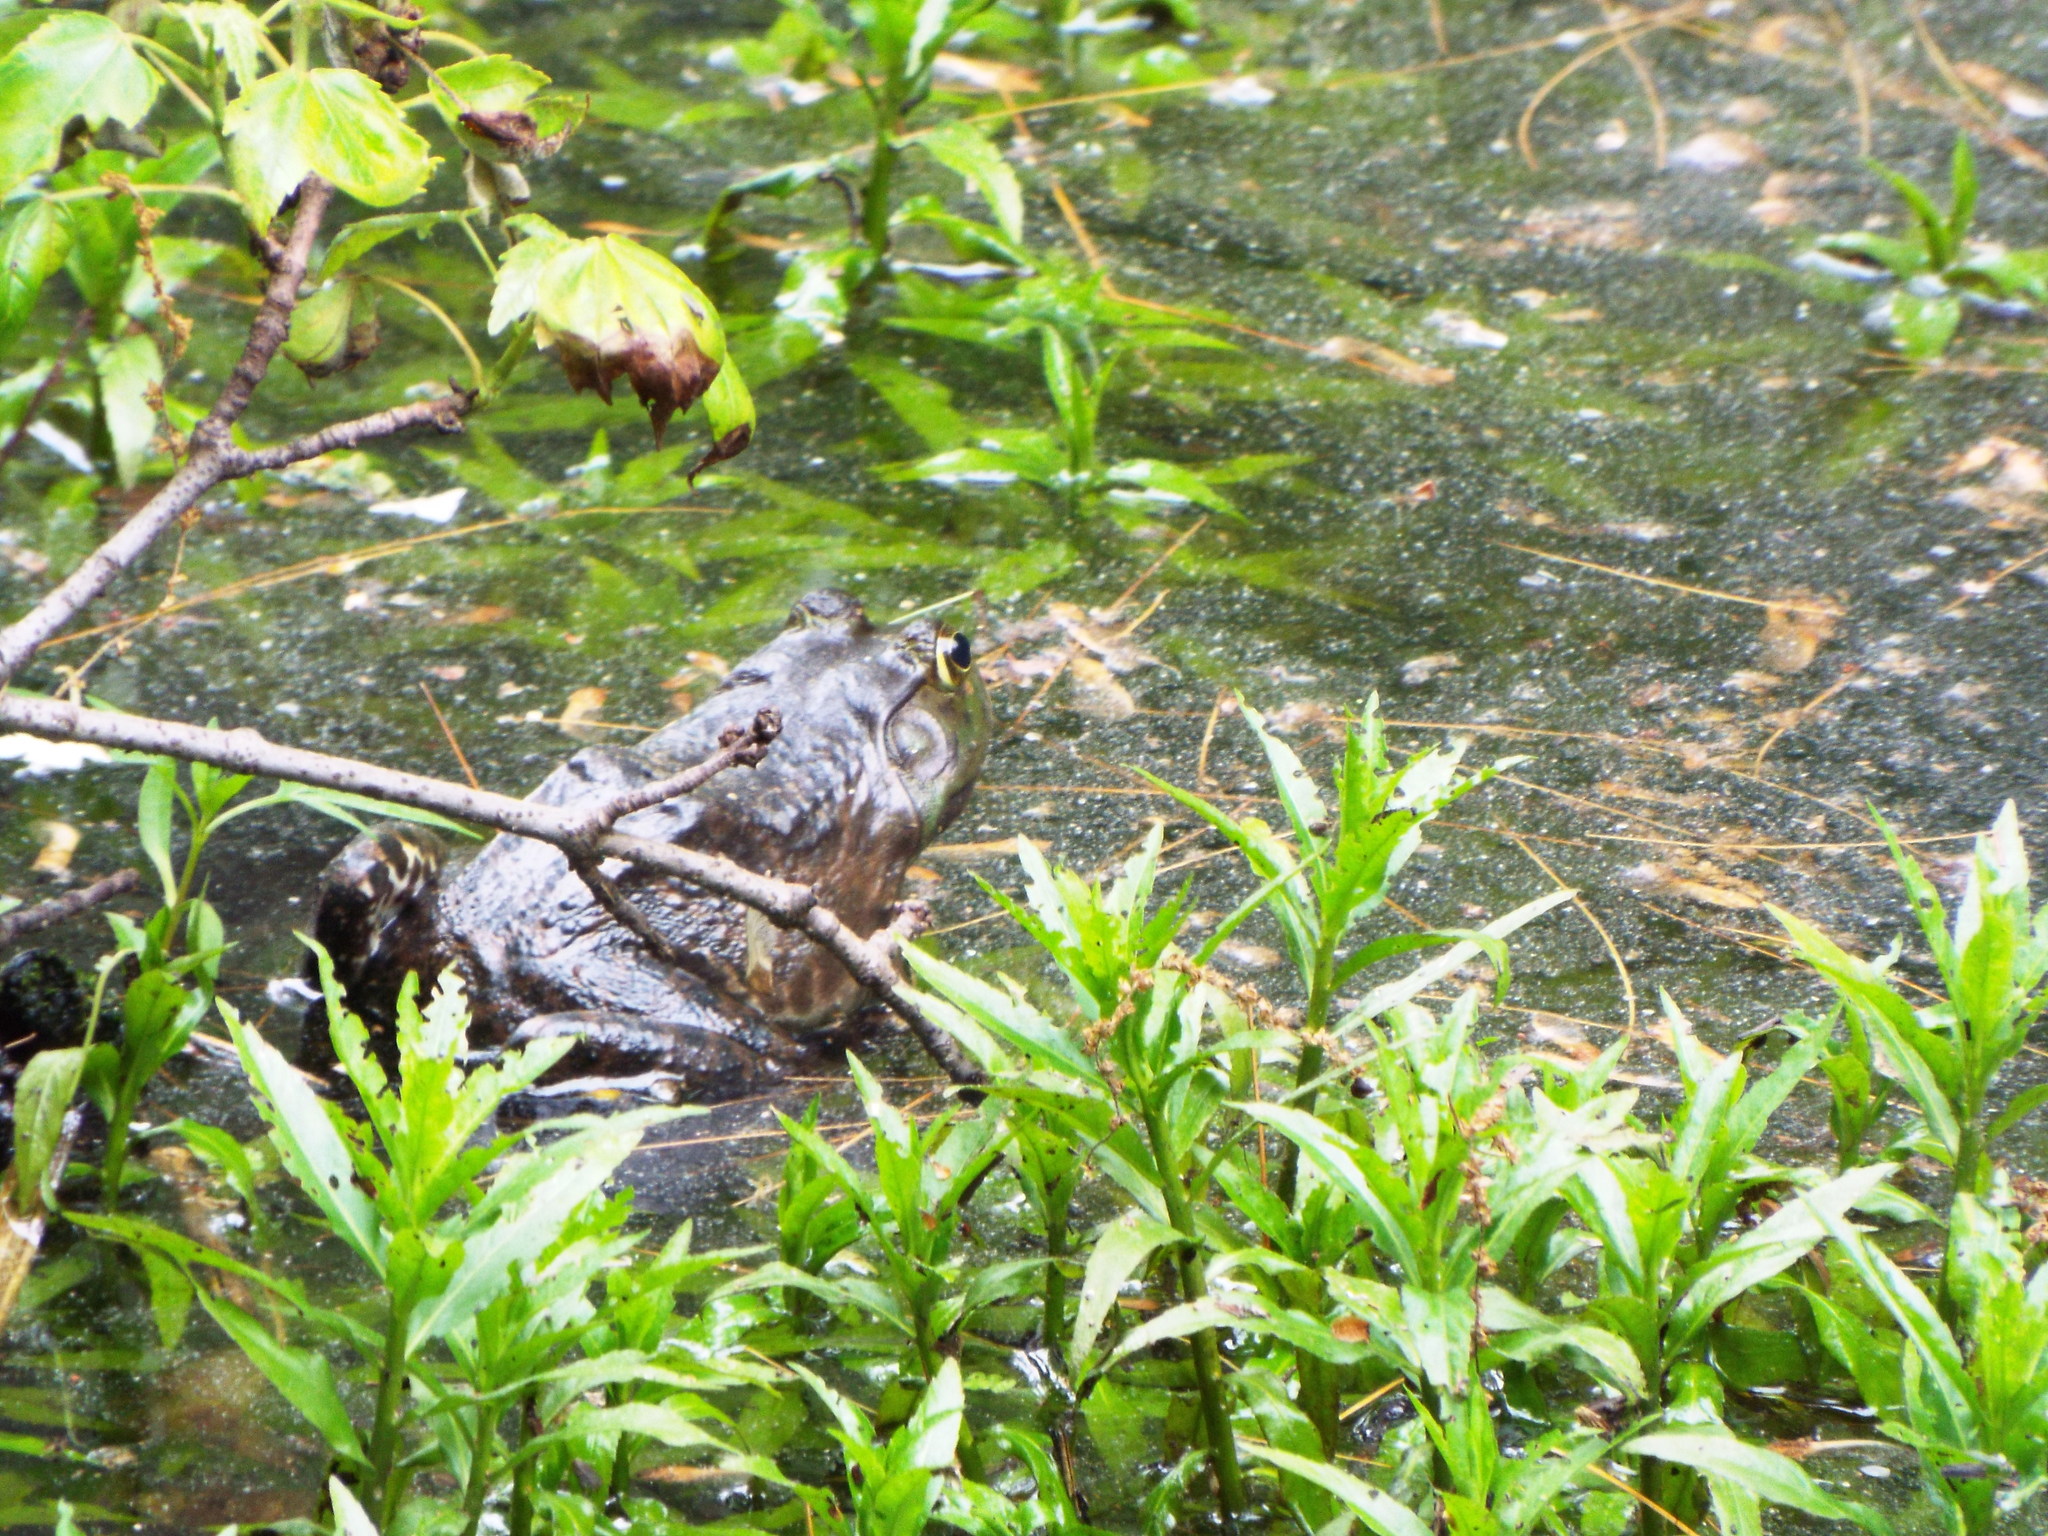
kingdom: Animalia
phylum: Chordata
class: Amphibia
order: Anura
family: Ranidae
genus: Lithobates
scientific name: Lithobates catesbeianus
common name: American bullfrog
